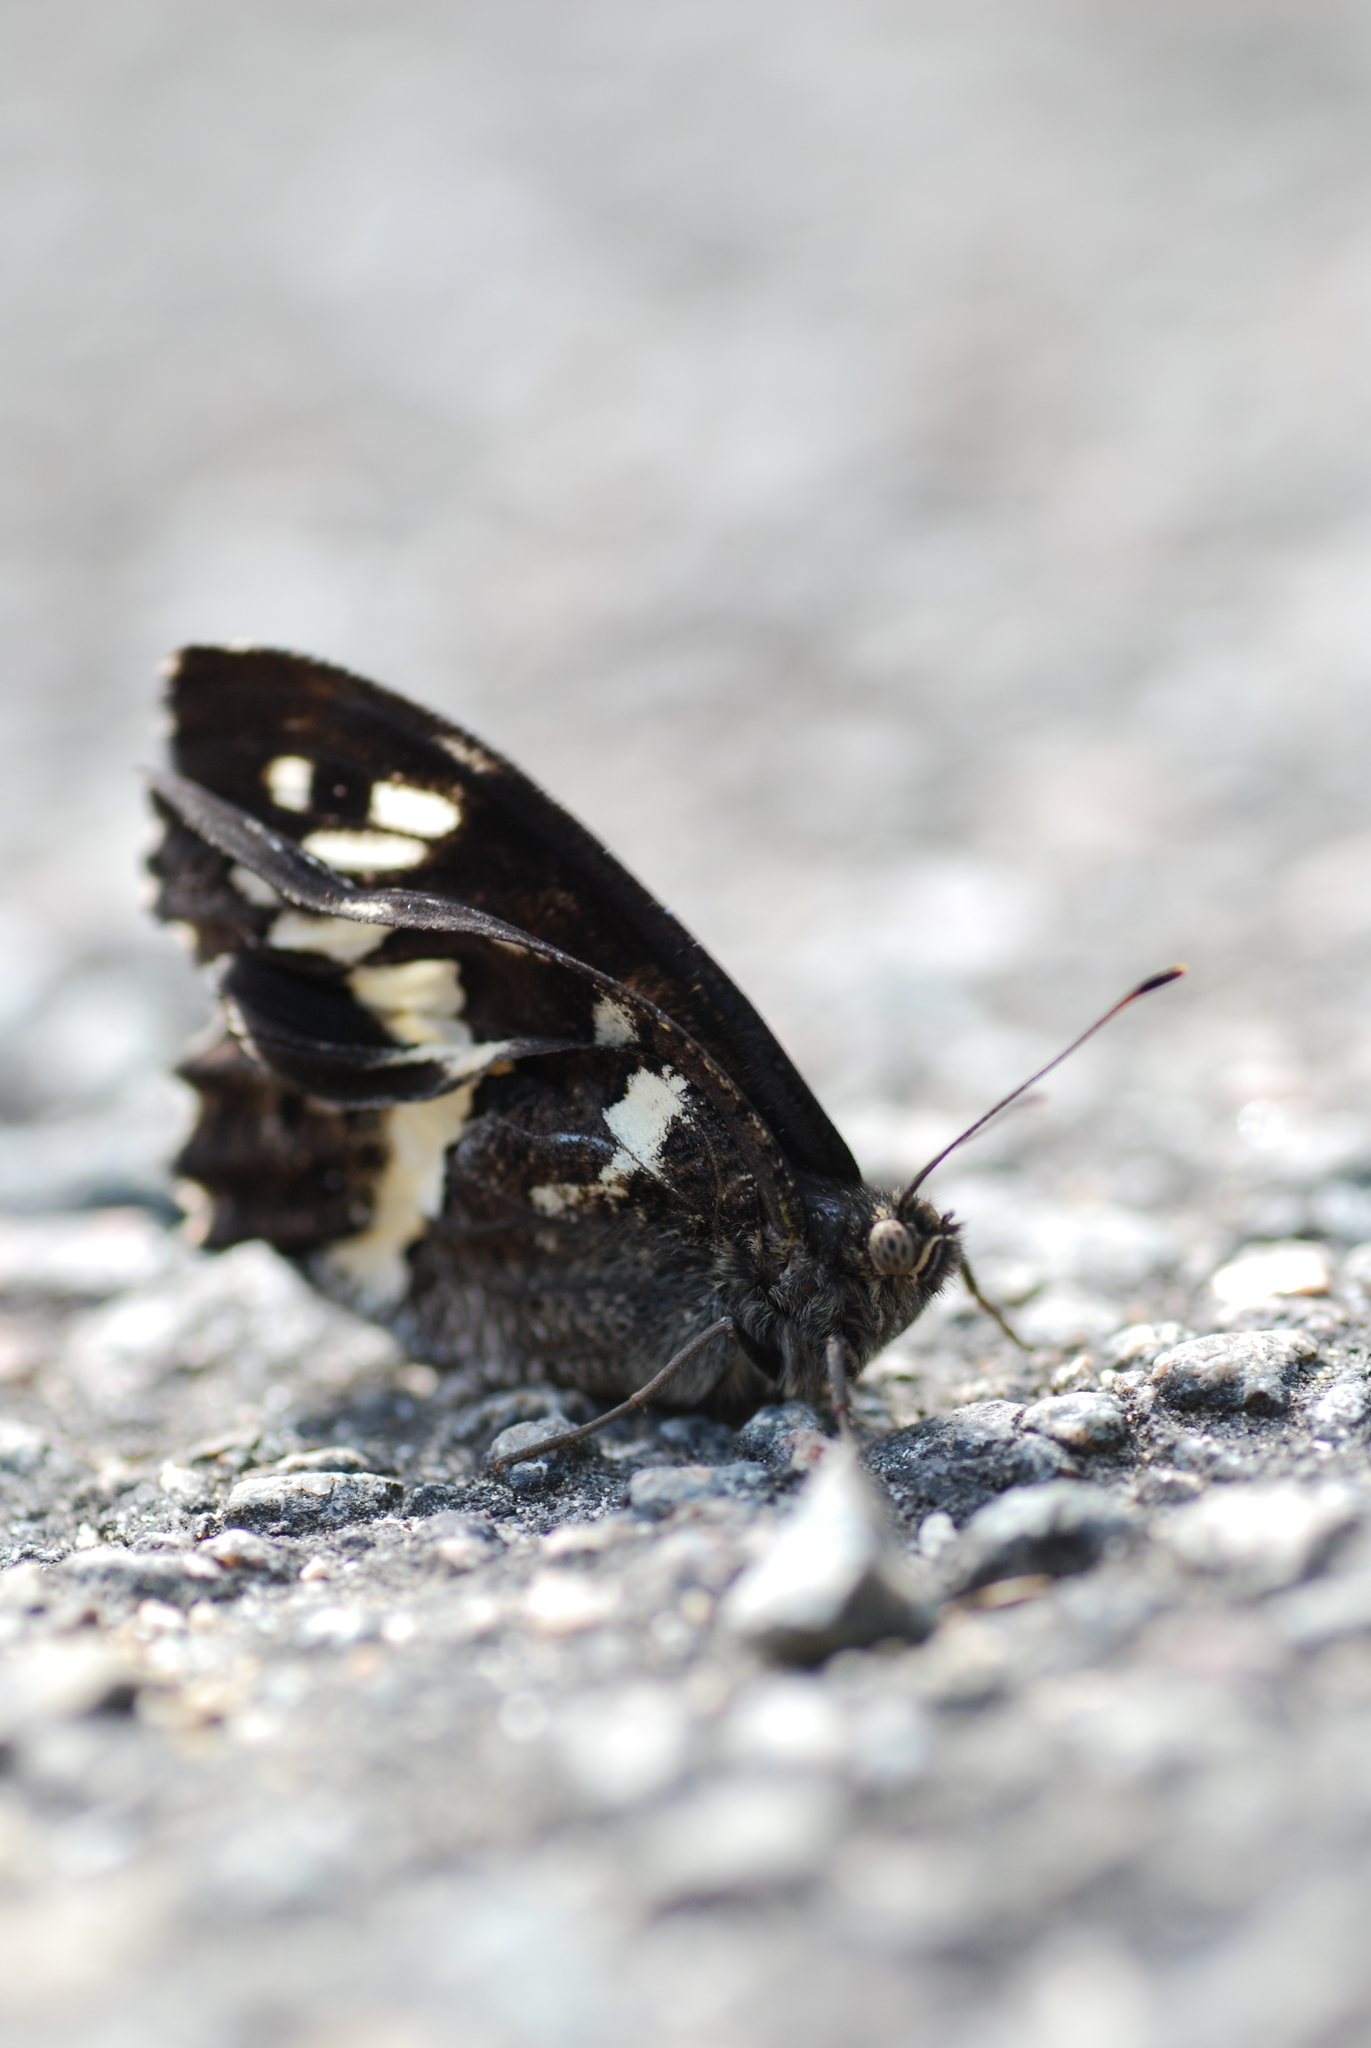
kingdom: Animalia
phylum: Arthropoda
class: Insecta
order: Lepidoptera
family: Lycaenidae
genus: Loweia
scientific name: Loweia tityrus
